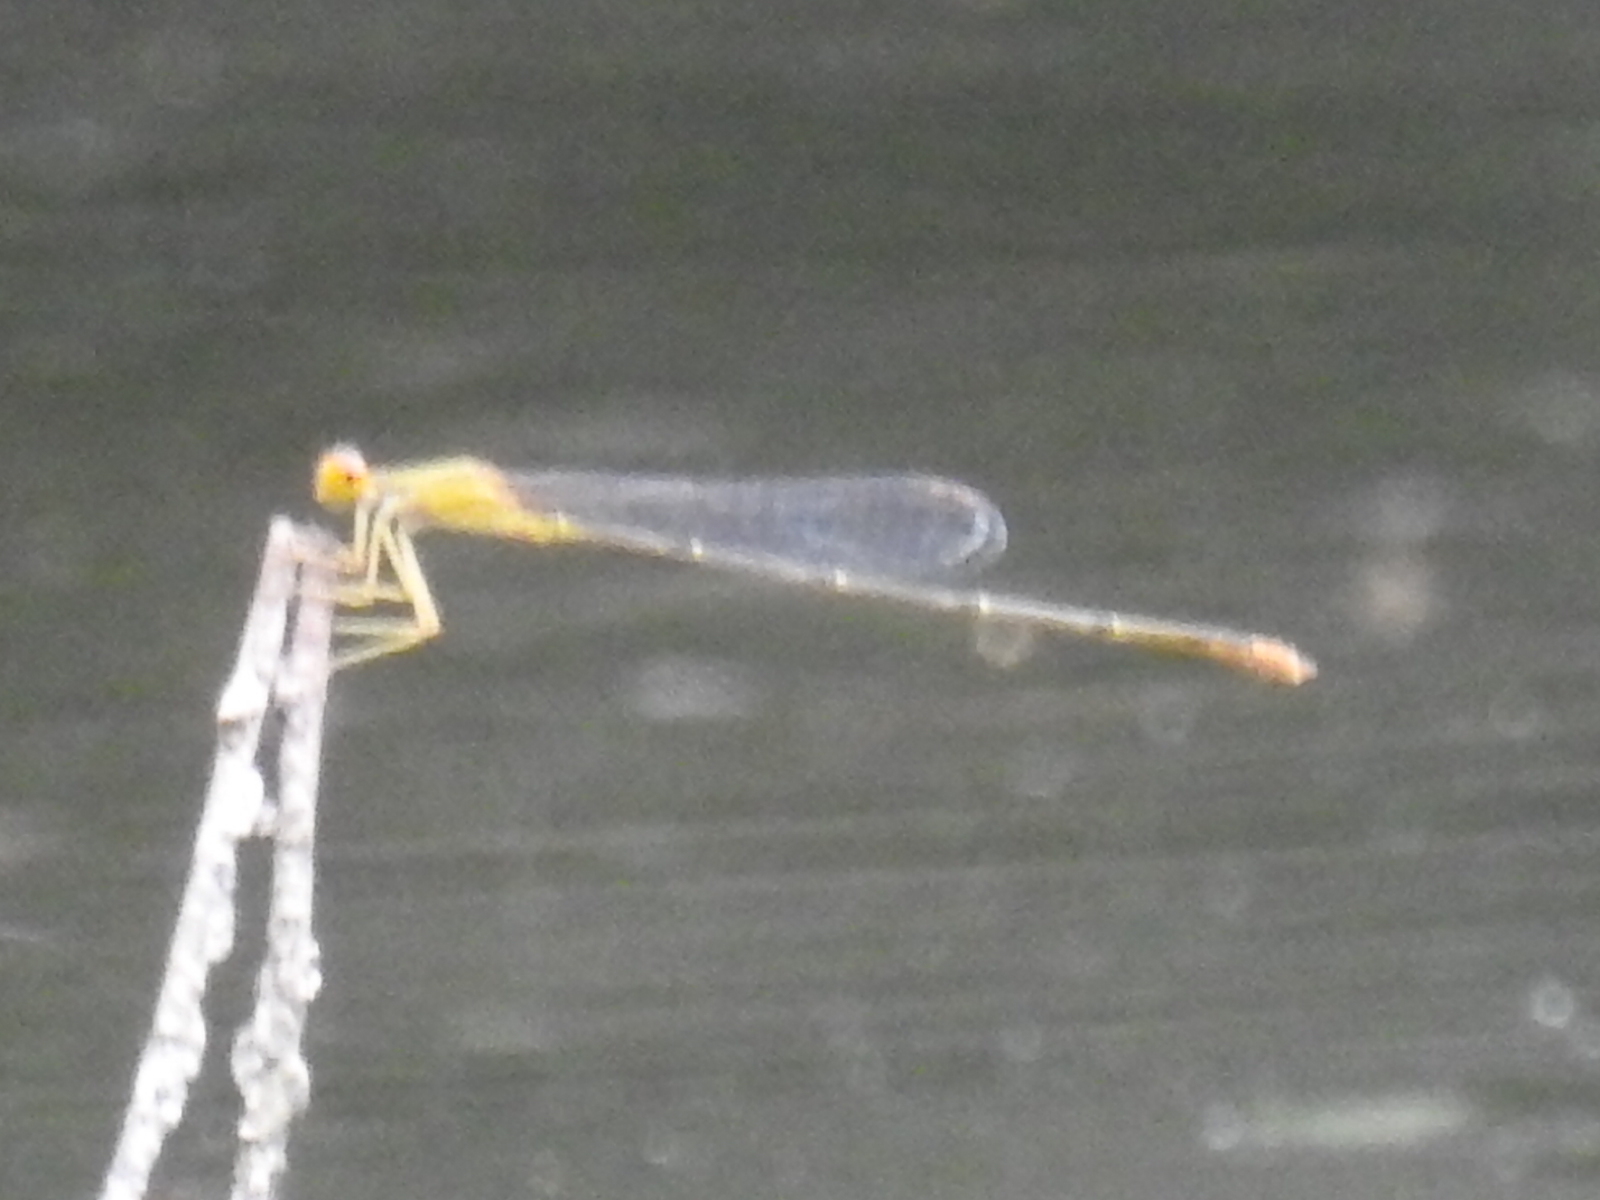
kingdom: Animalia
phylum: Arthropoda
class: Insecta
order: Odonata
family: Coenagrionidae
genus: Enallagma
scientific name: Enallagma signatum
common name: Orange bluet
